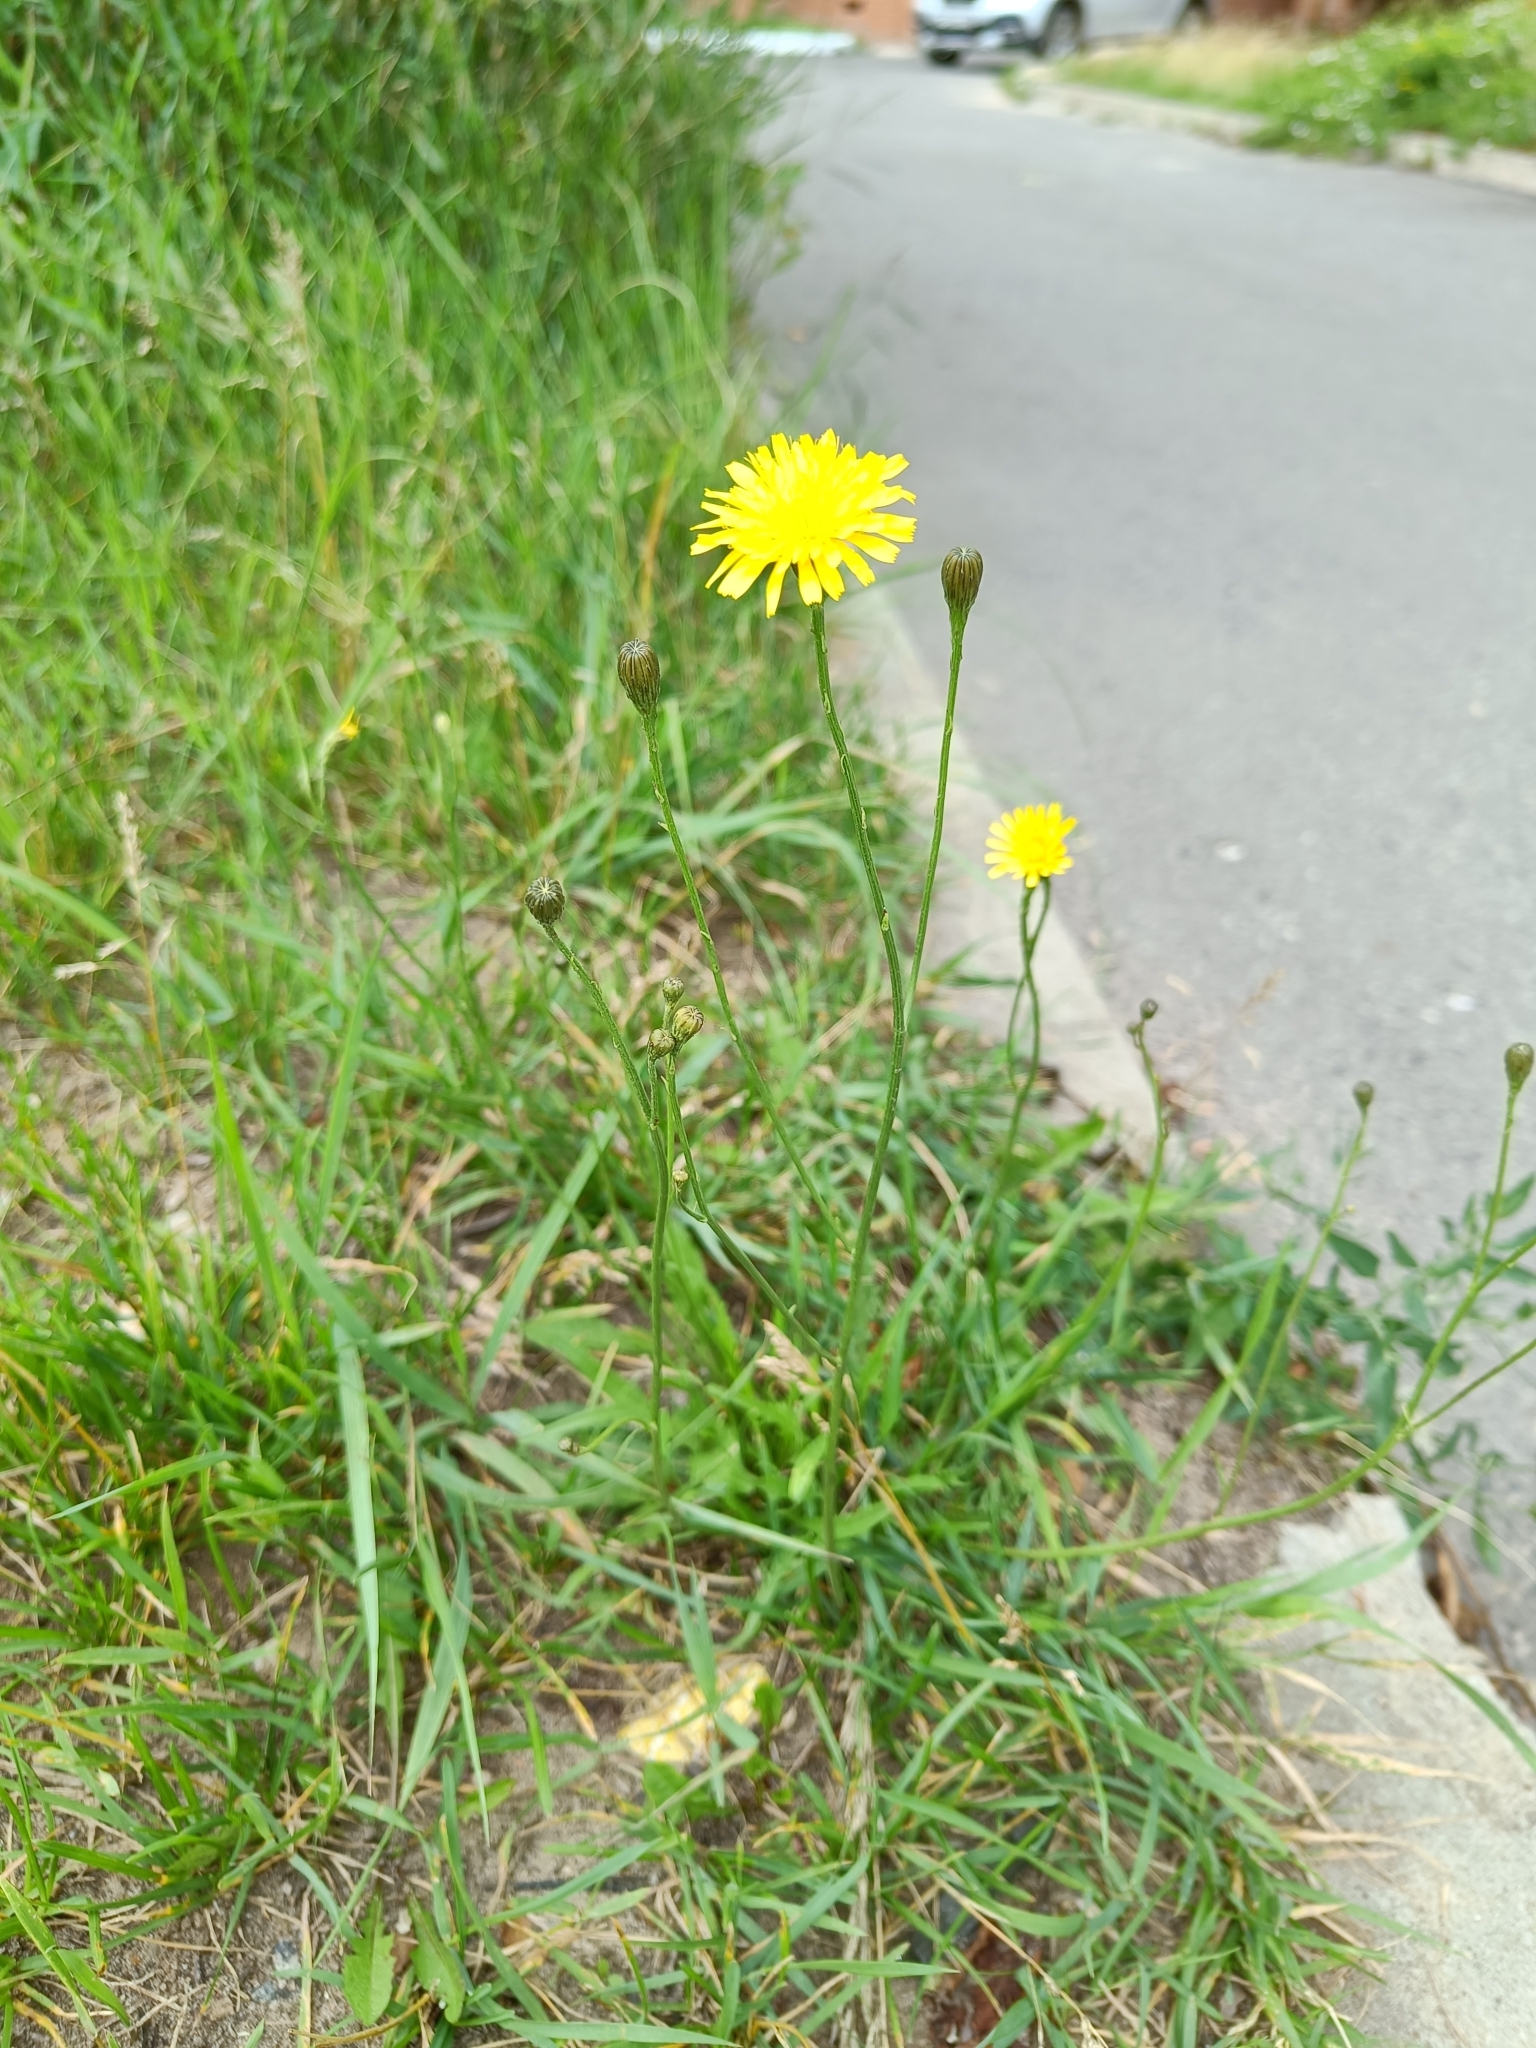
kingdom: Plantae
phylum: Tracheophyta
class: Magnoliopsida
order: Asterales
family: Asteraceae
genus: Scorzoneroides
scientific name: Scorzoneroides autumnalis
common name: Autumn hawkbit
